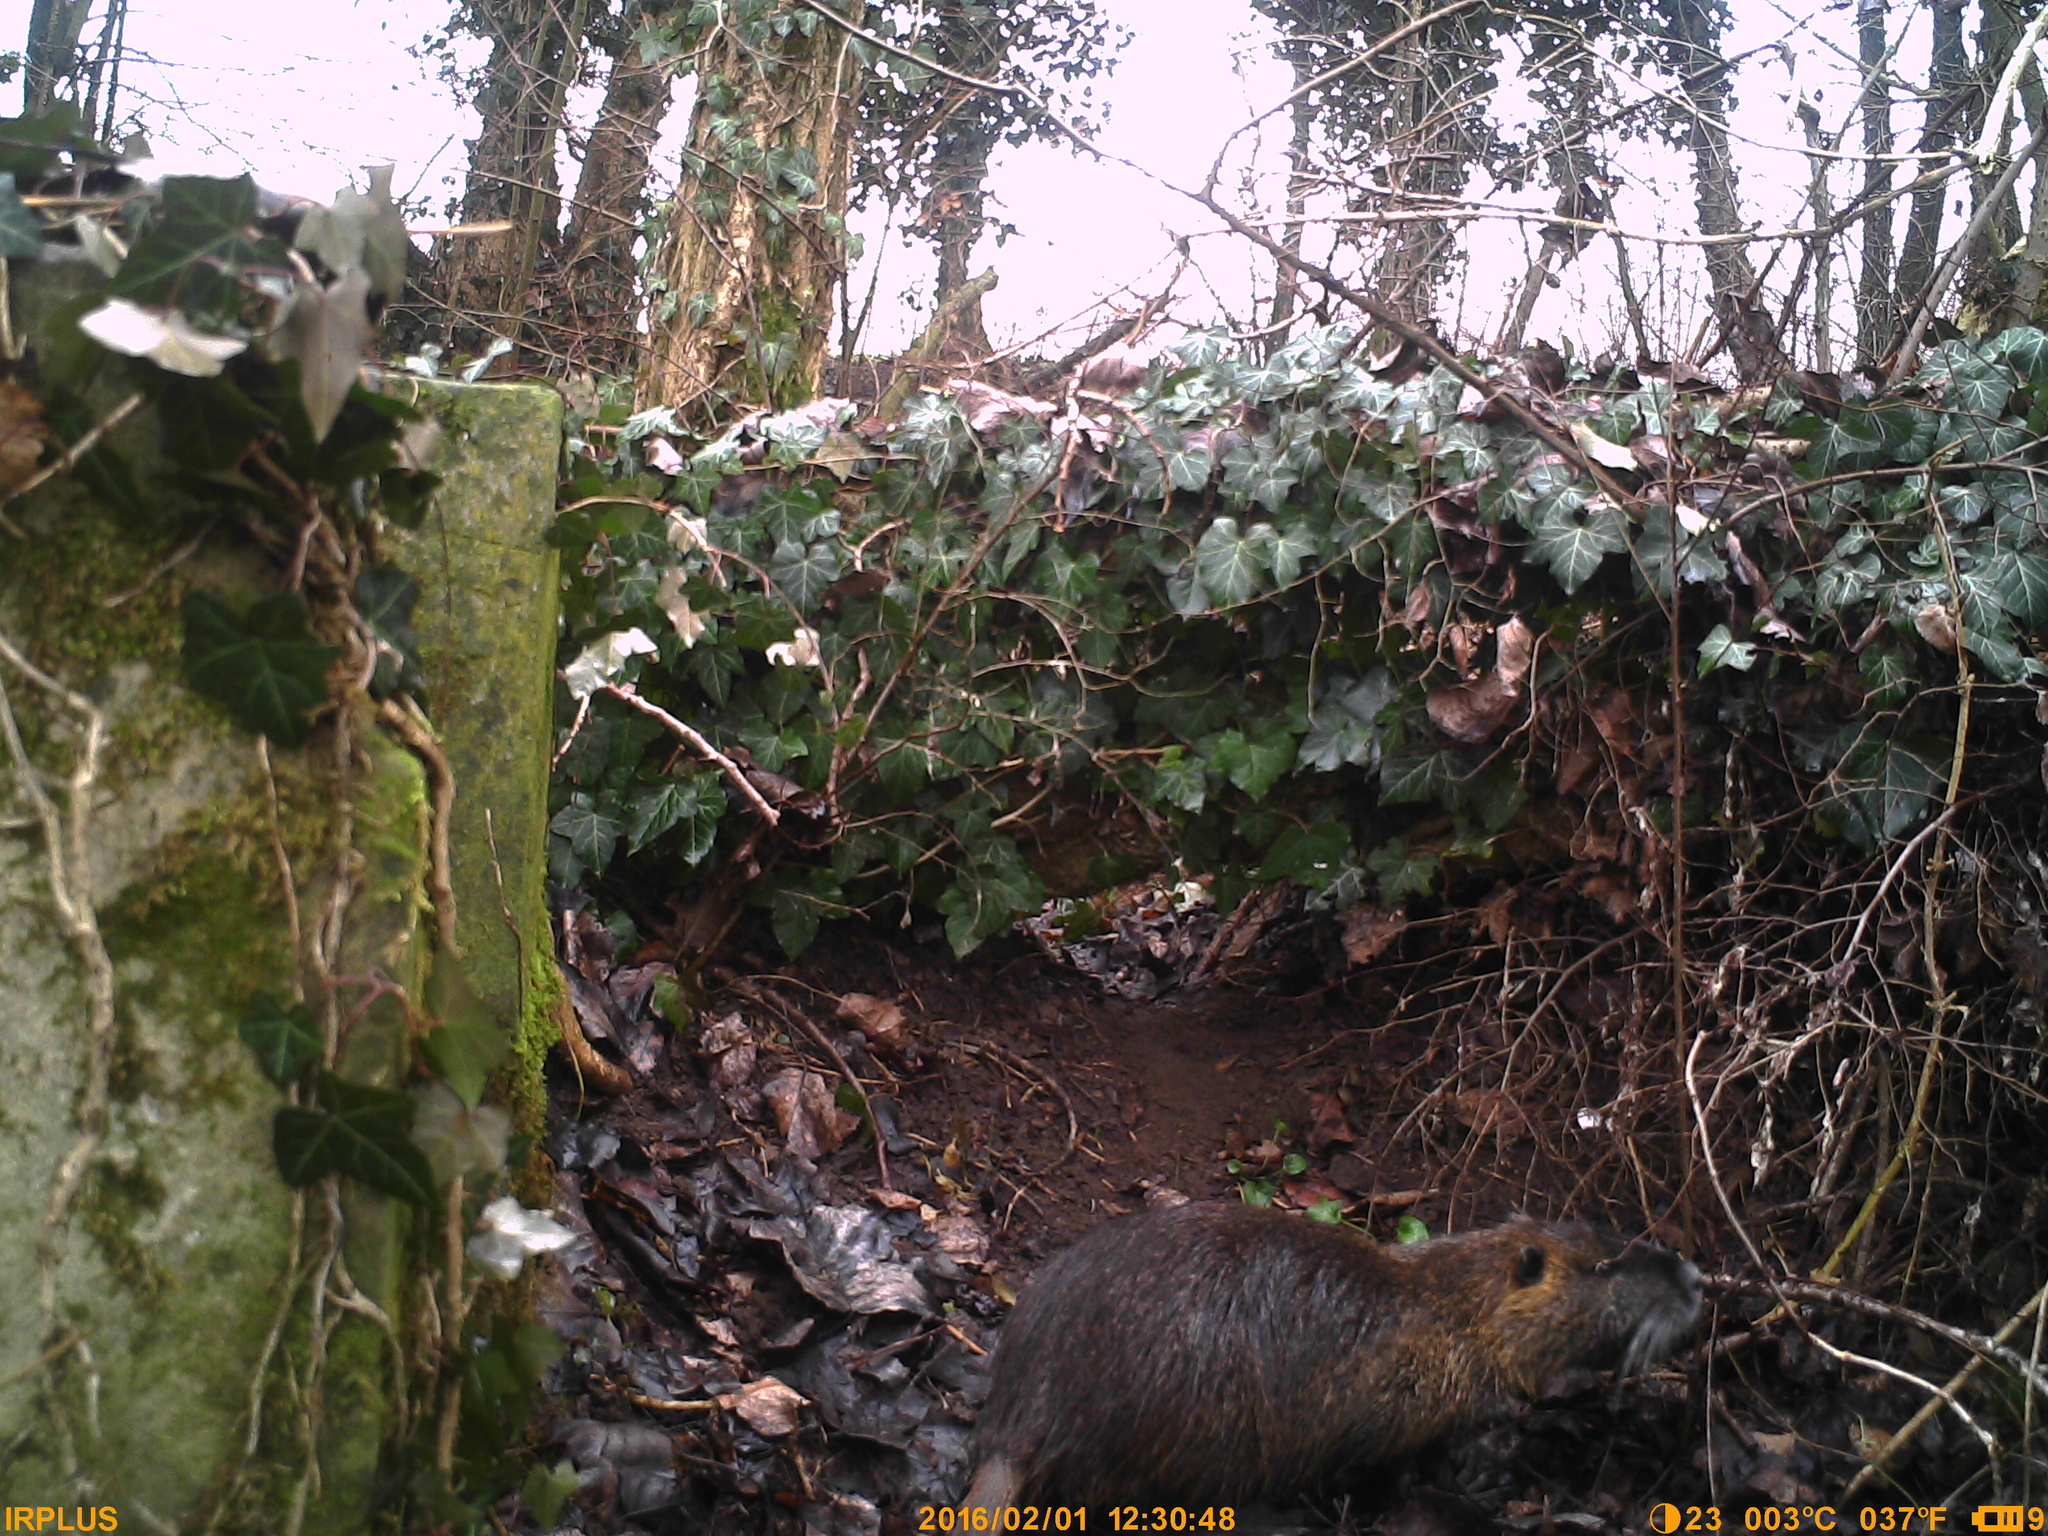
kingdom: Animalia
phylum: Chordata
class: Mammalia
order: Rodentia
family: Myocastoridae
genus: Myocastor
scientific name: Myocastor coypus
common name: Coypu
